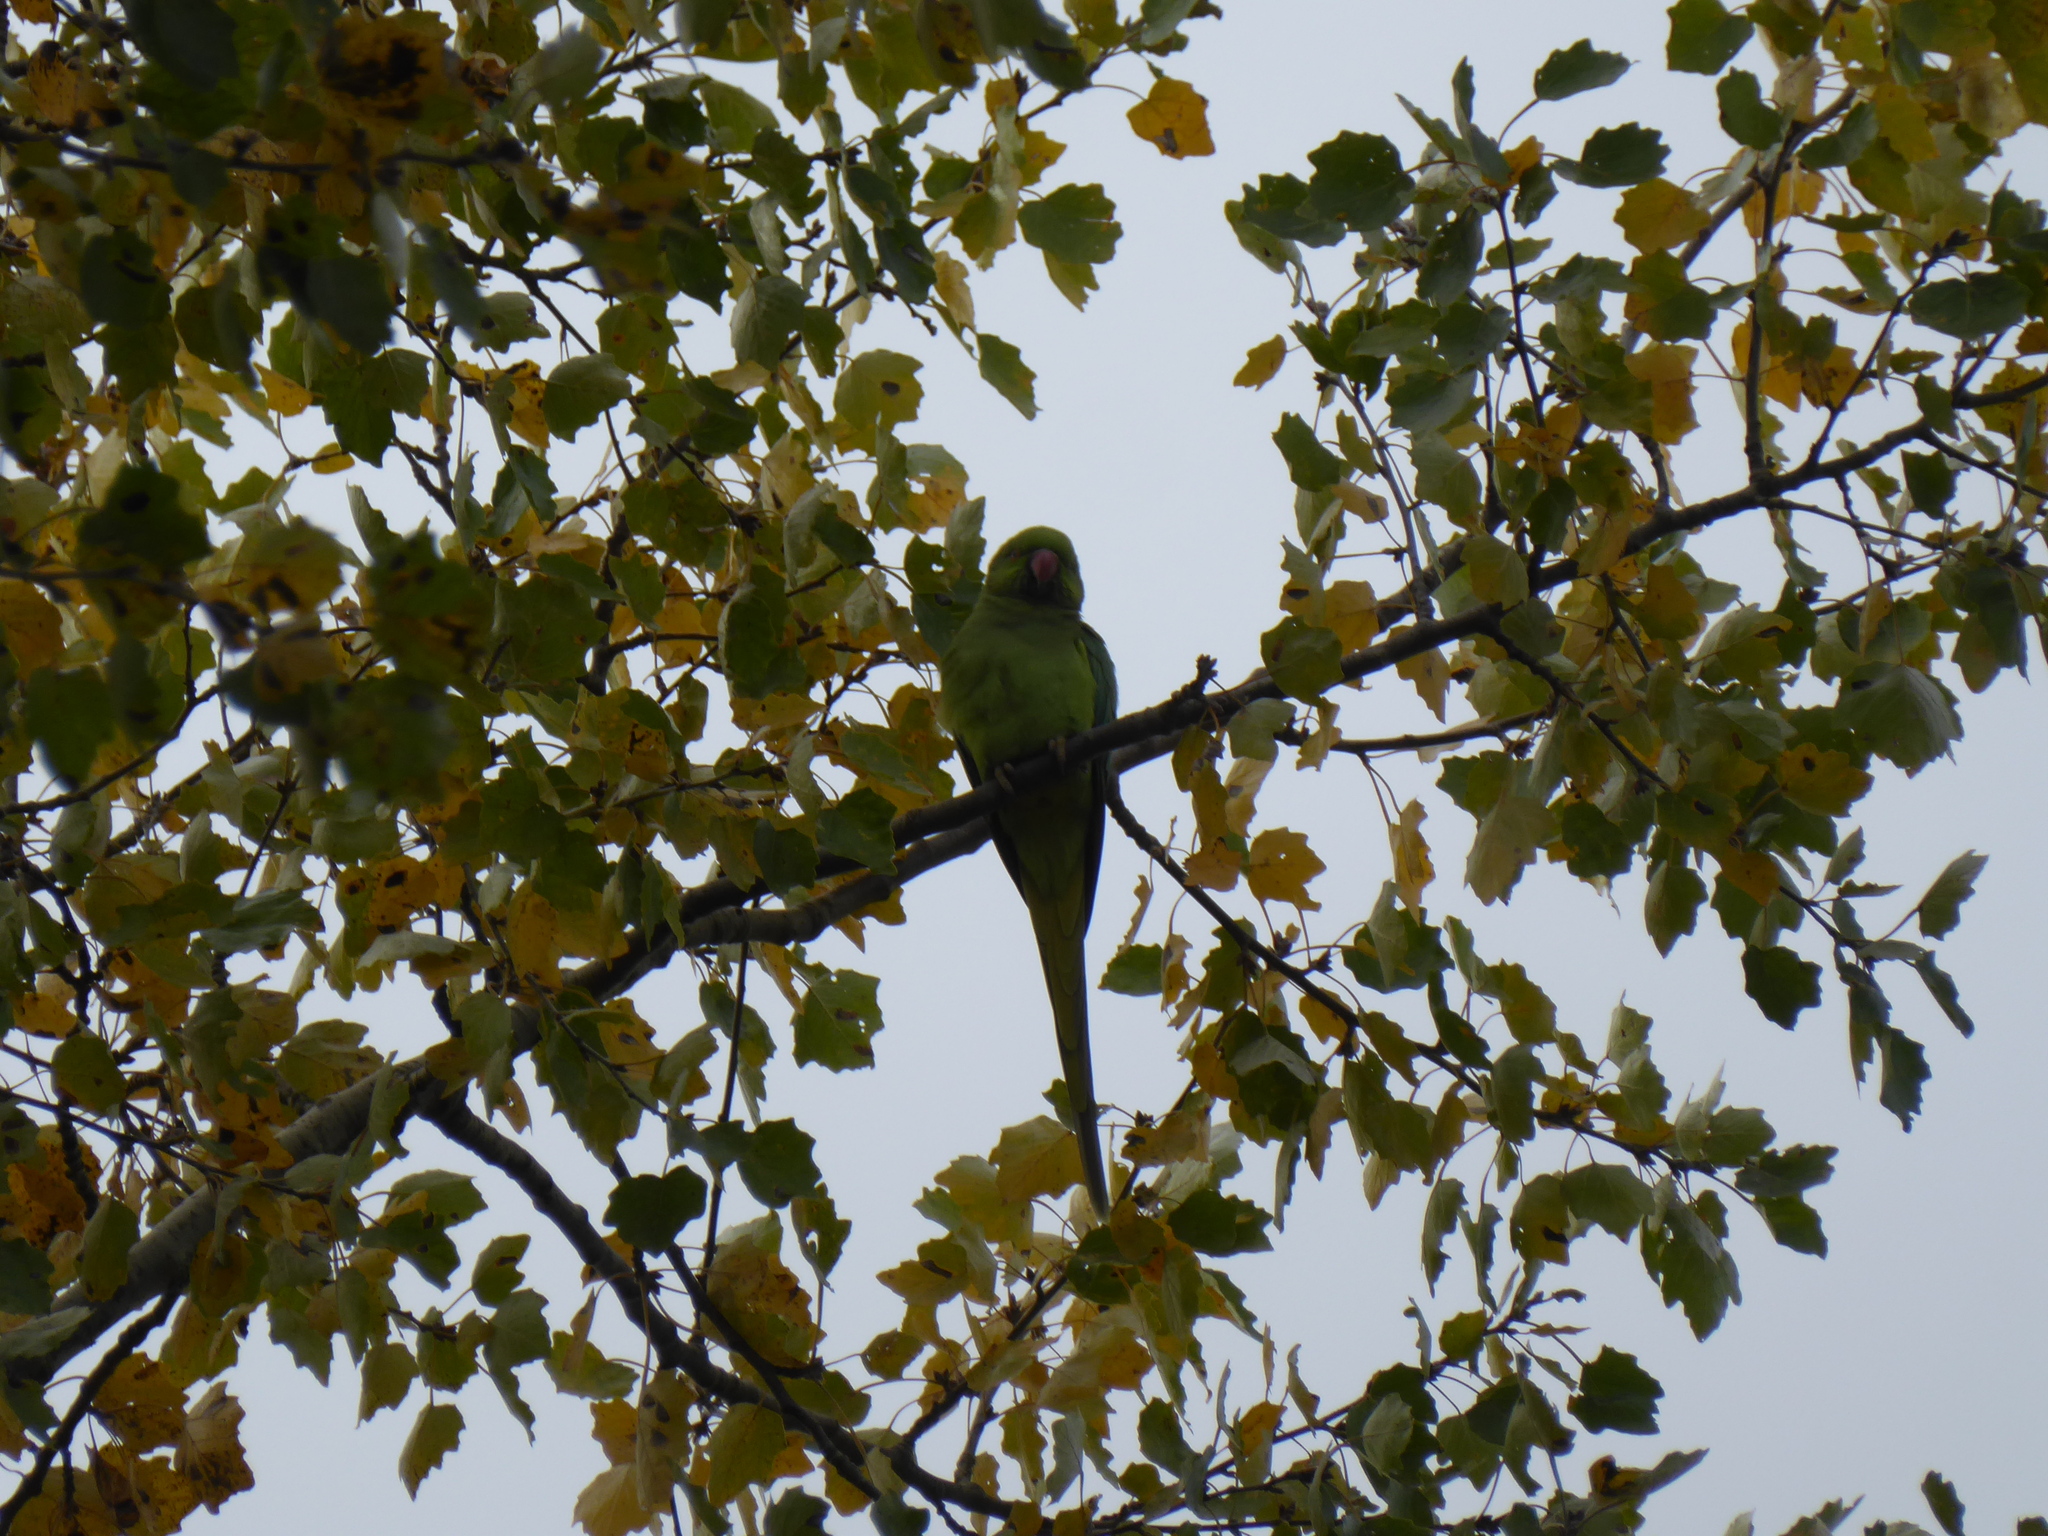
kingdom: Animalia
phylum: Chordata
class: Aves
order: Psittaciformes
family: Psittacidae
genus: Psittacula
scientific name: Psittacula krameri
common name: Rose-ringed parakeet
